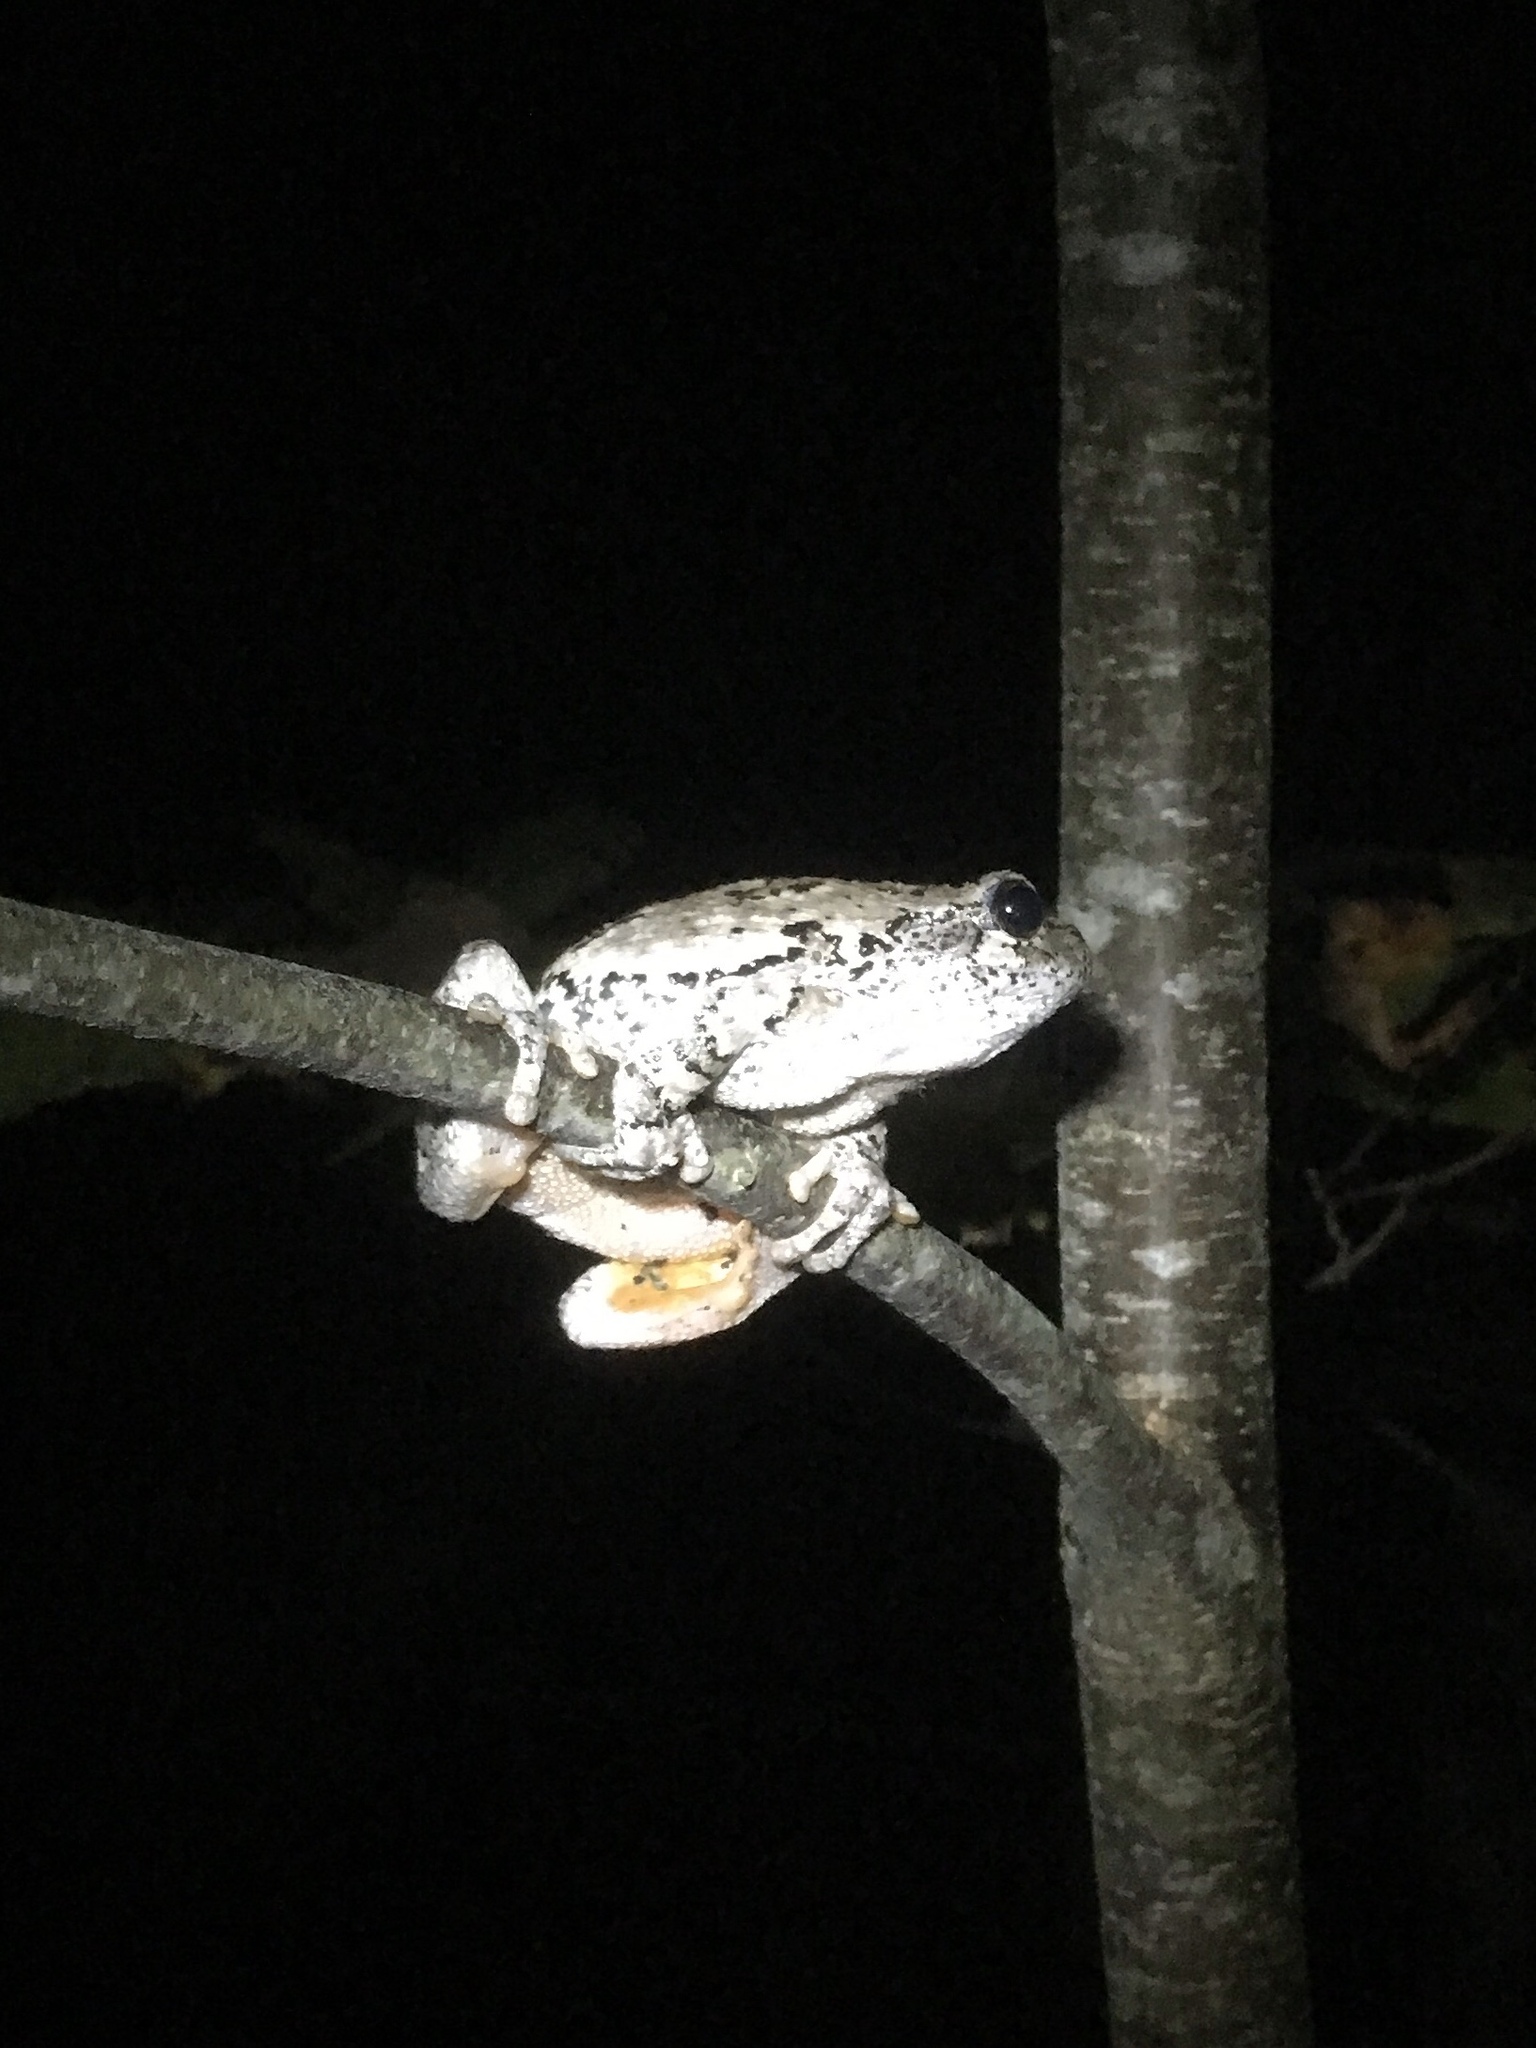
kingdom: Animalia
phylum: Chordata
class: Amphibia
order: Anura
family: Hylidae
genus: Dryophytes
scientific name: Dryophytes versicolor
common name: Gray treefrog
